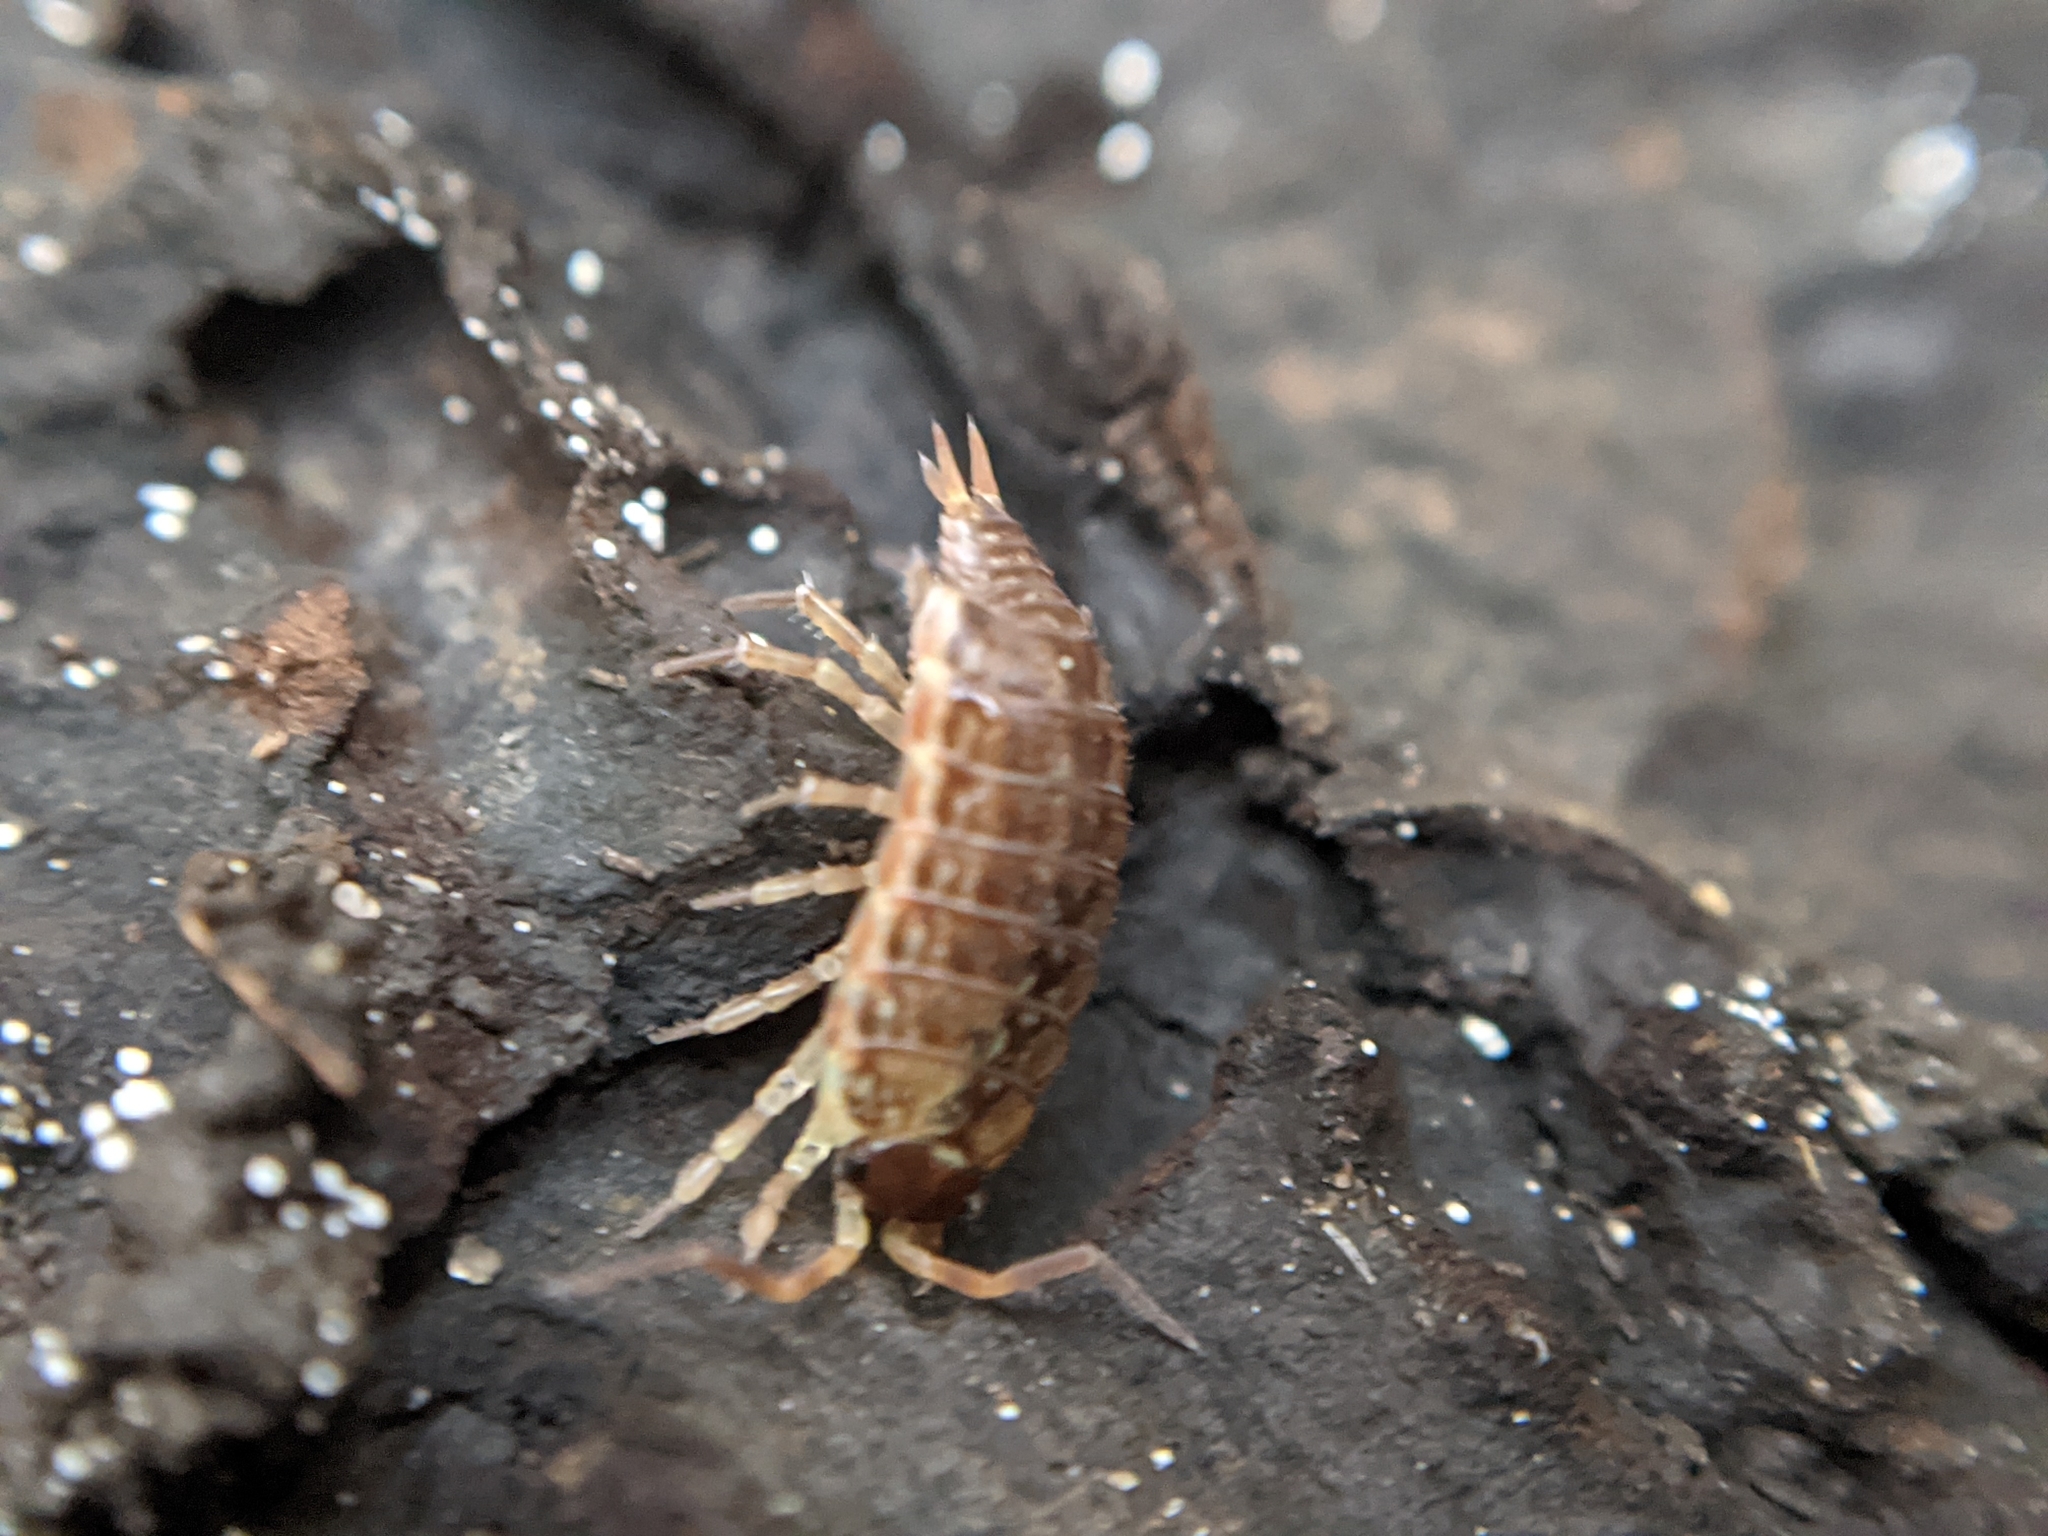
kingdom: Animalia
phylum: Arthropoda
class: Malacostraca
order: Isopoda
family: Philosciidae
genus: Philoscia
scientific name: Philoscia muscorum
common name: Common striped woodlouse
